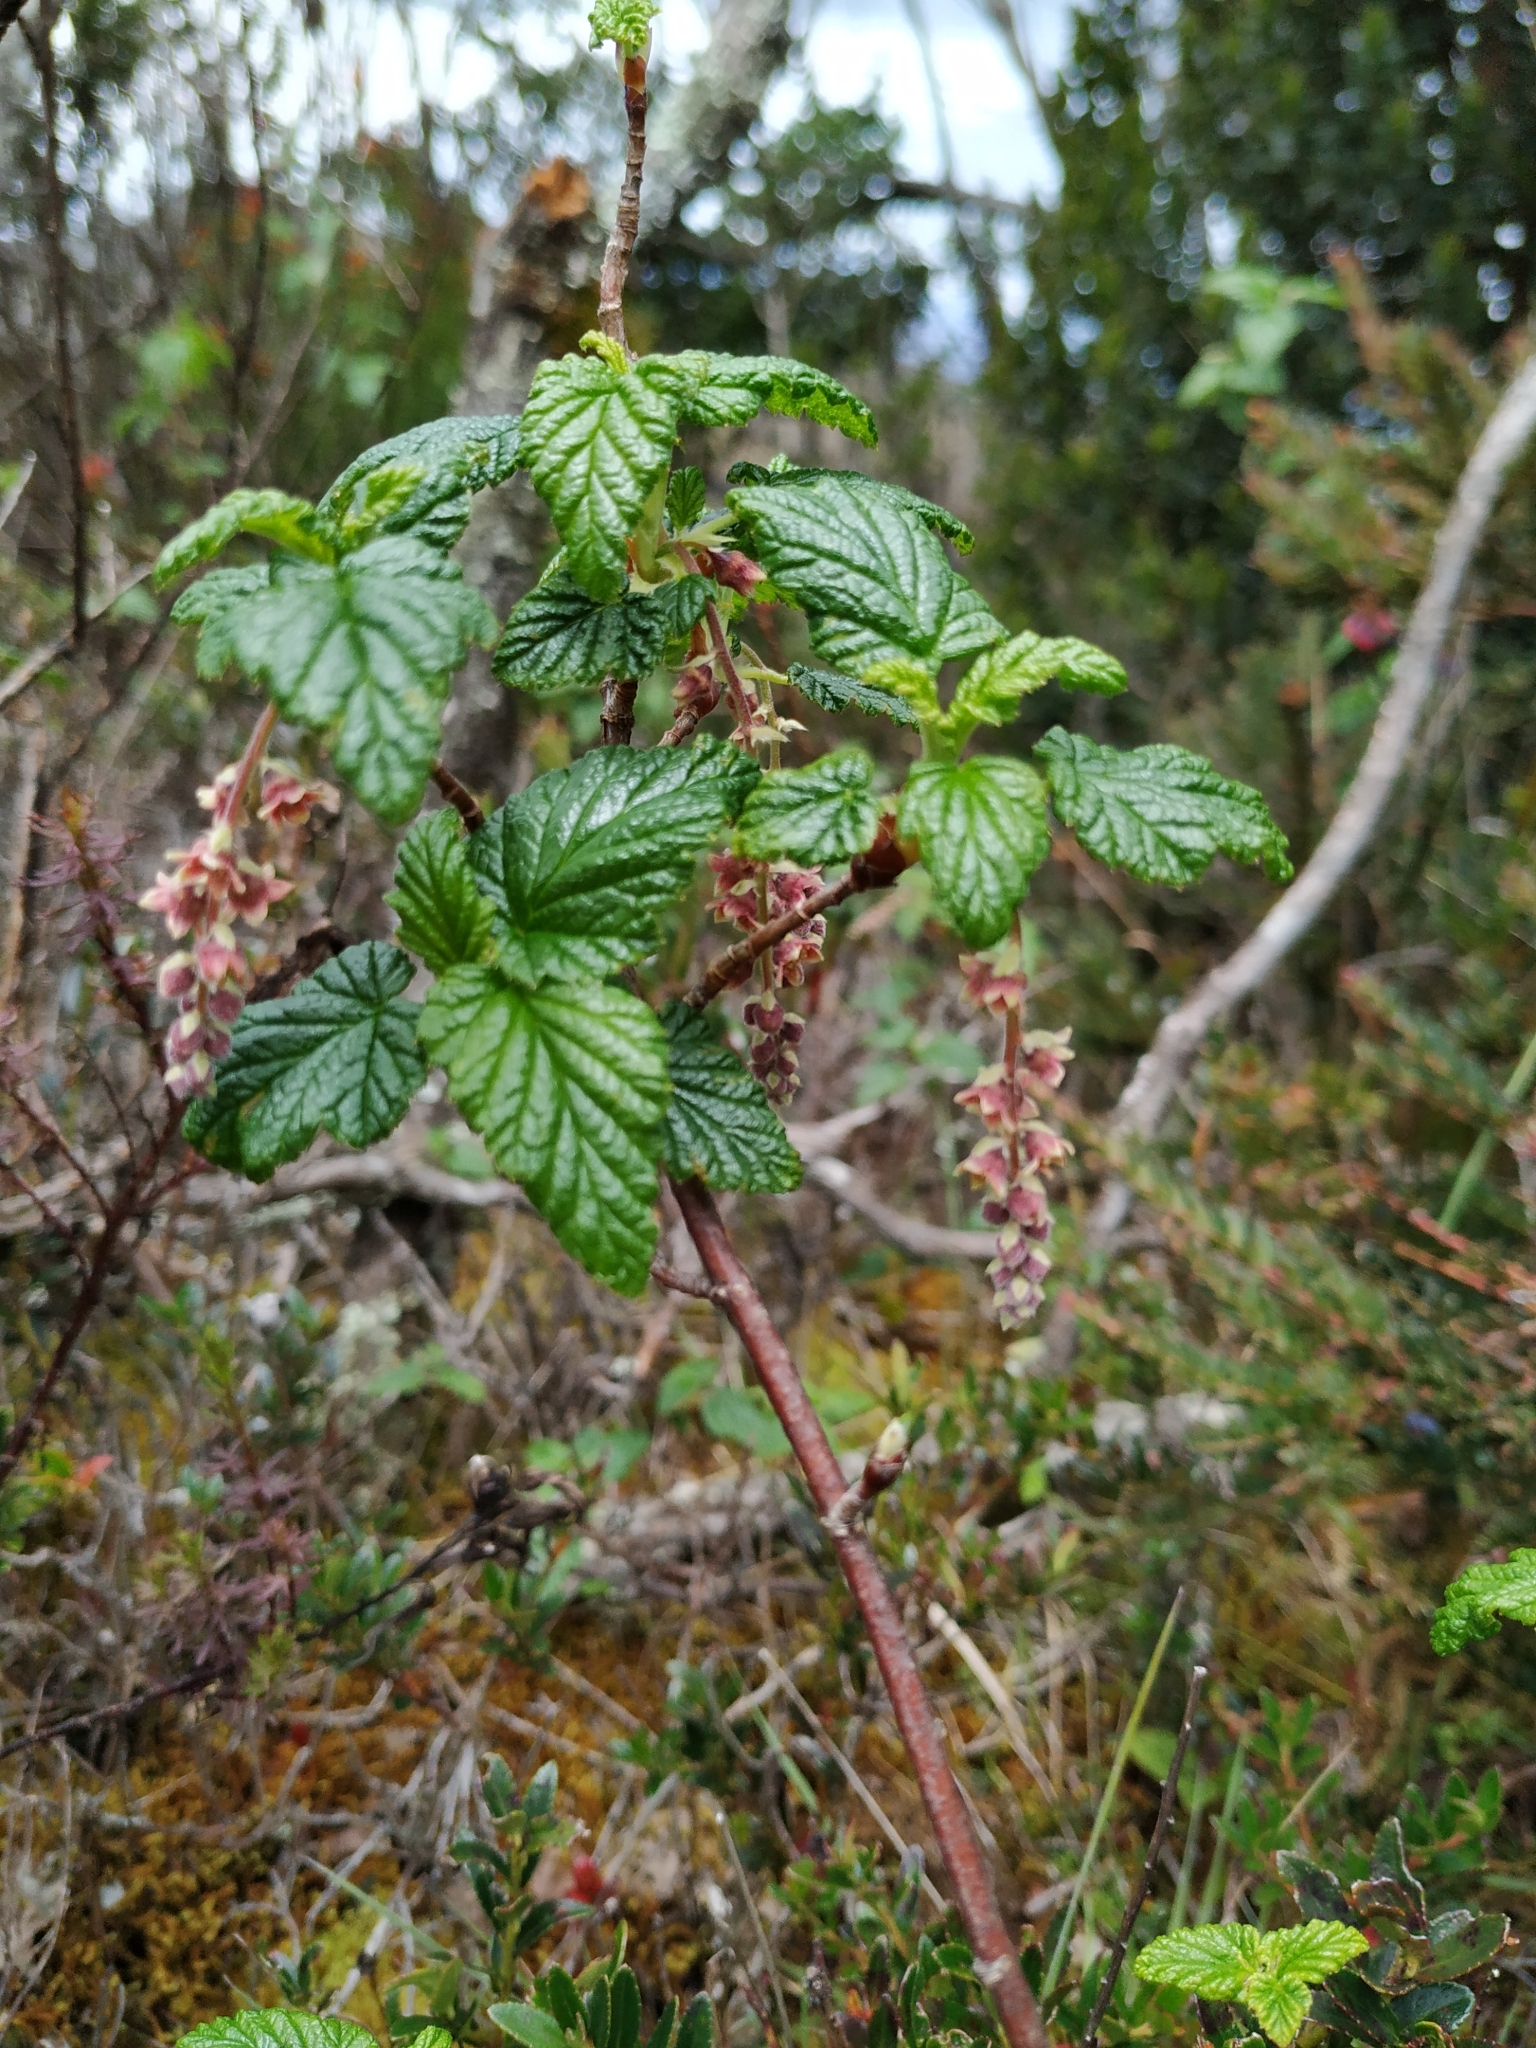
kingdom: Plantae
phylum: Tracheophyta
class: Magnoliopsida
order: Saxifragales
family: Grossulariaceae
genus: Ribes
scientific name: Ribes andicola
